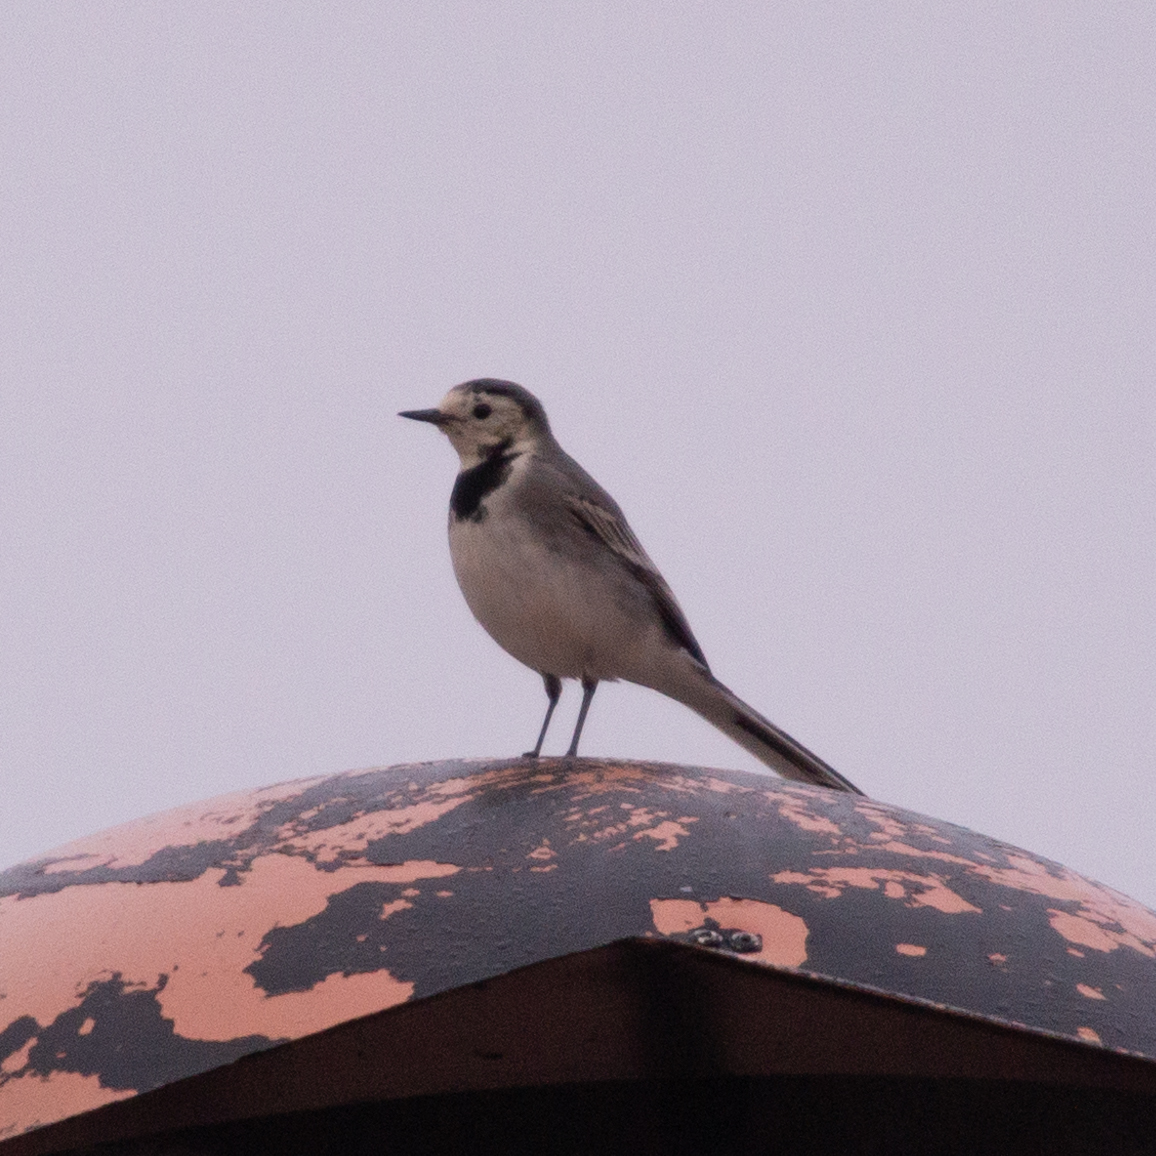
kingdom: Animalia
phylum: Chordata
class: Aves
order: Passeriformes
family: Motacillidae
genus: Motacilla
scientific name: Motacilla alba
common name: White wagtail
